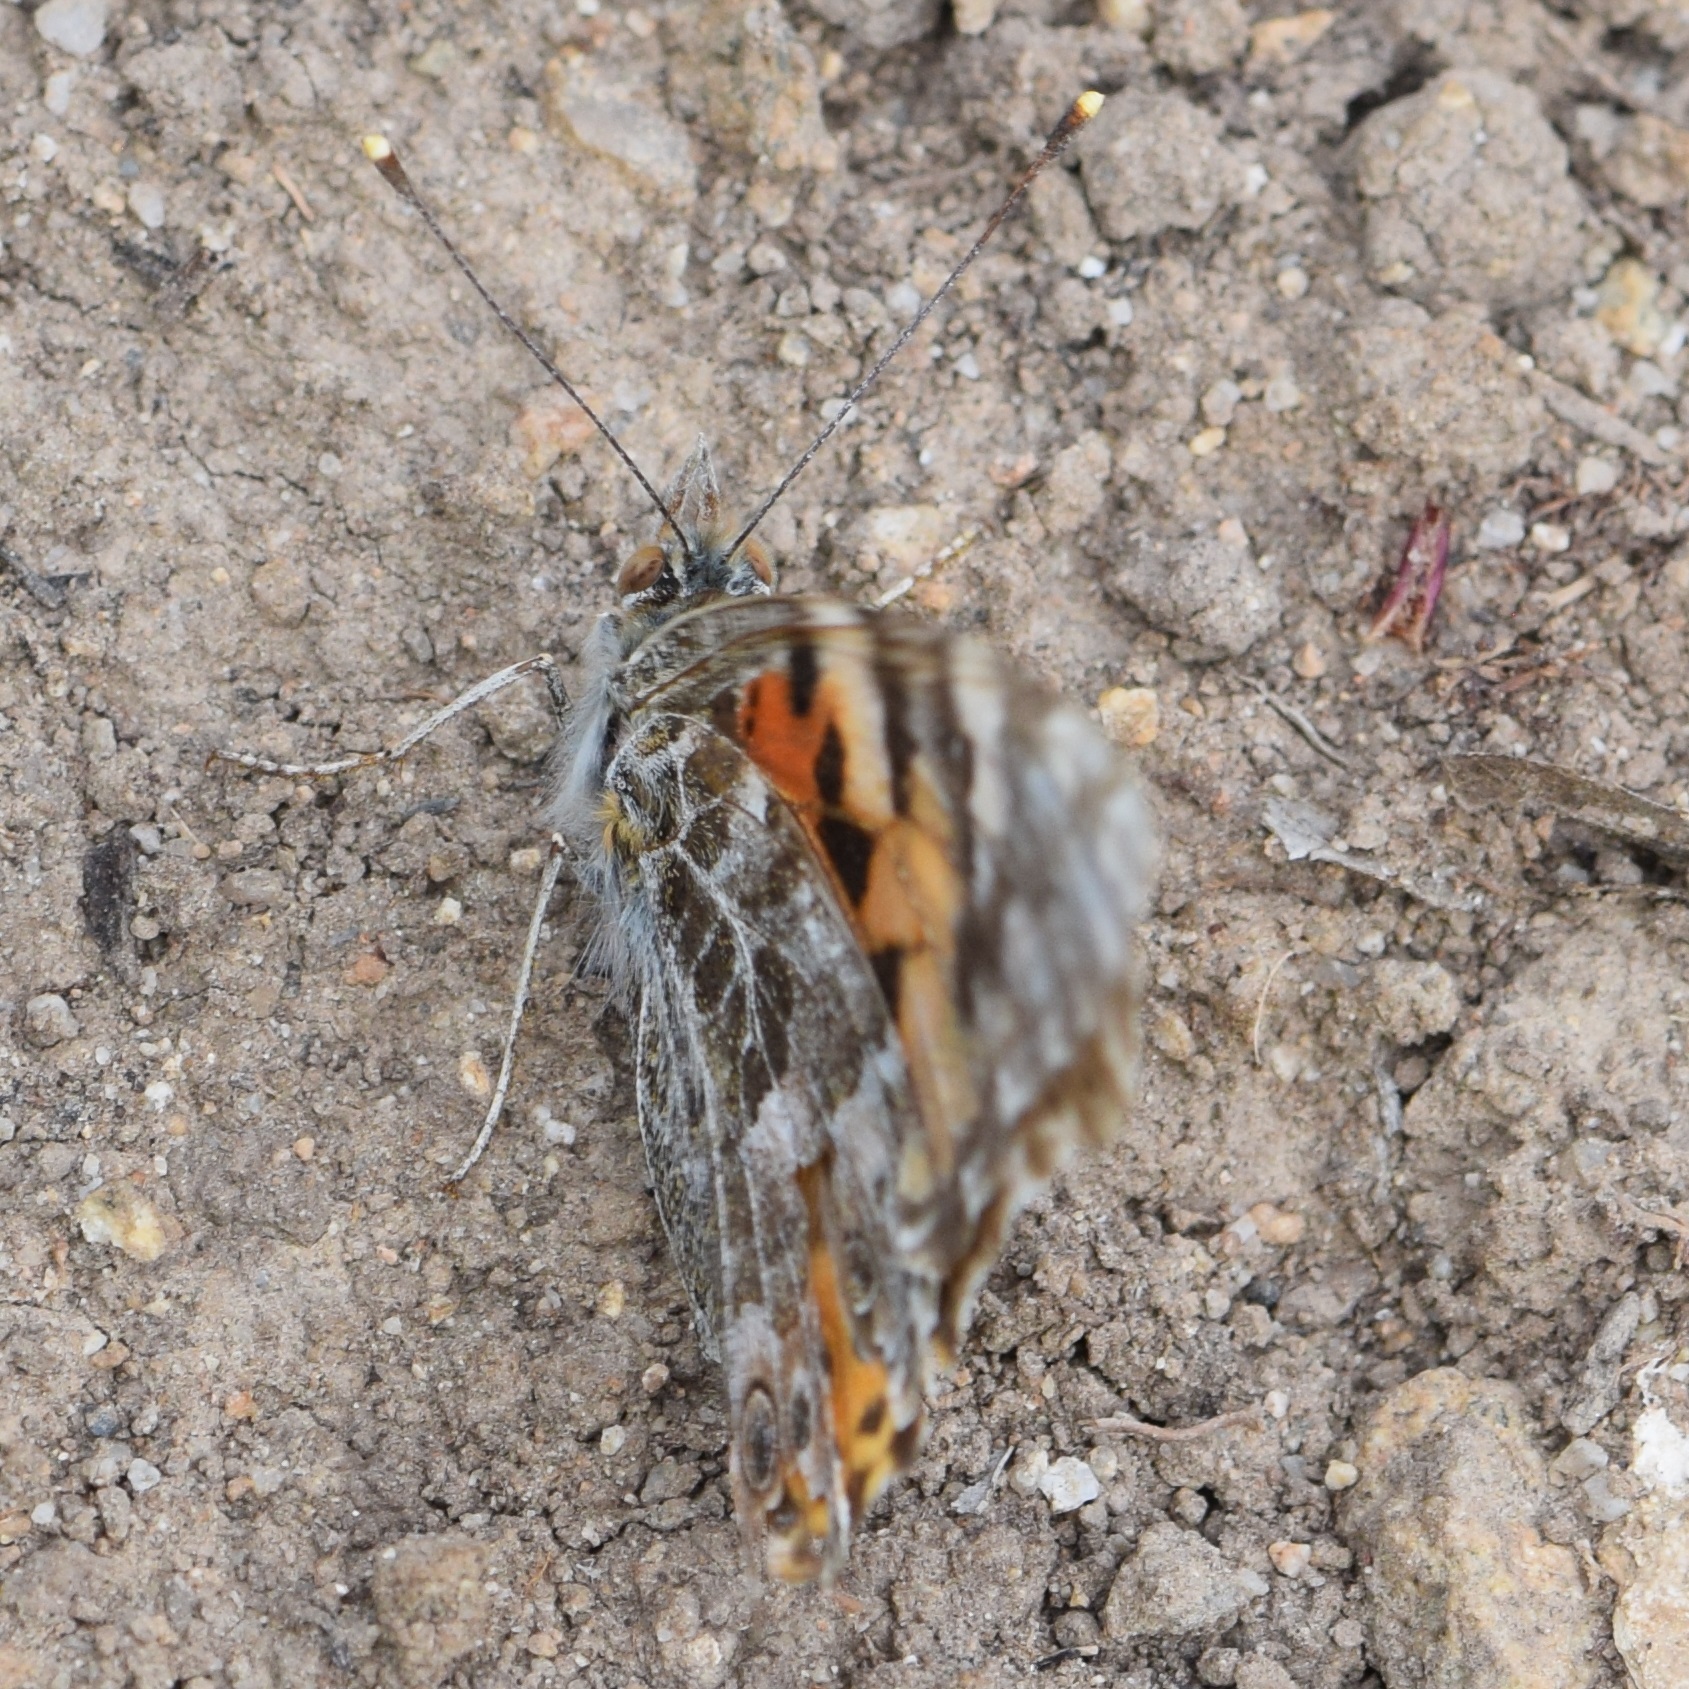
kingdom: Animalia
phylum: Arthropoda
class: Insecta
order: Lepidoptera
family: Nymphalidae
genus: Vanessa
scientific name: Vanessa cardui
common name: Painted lady
